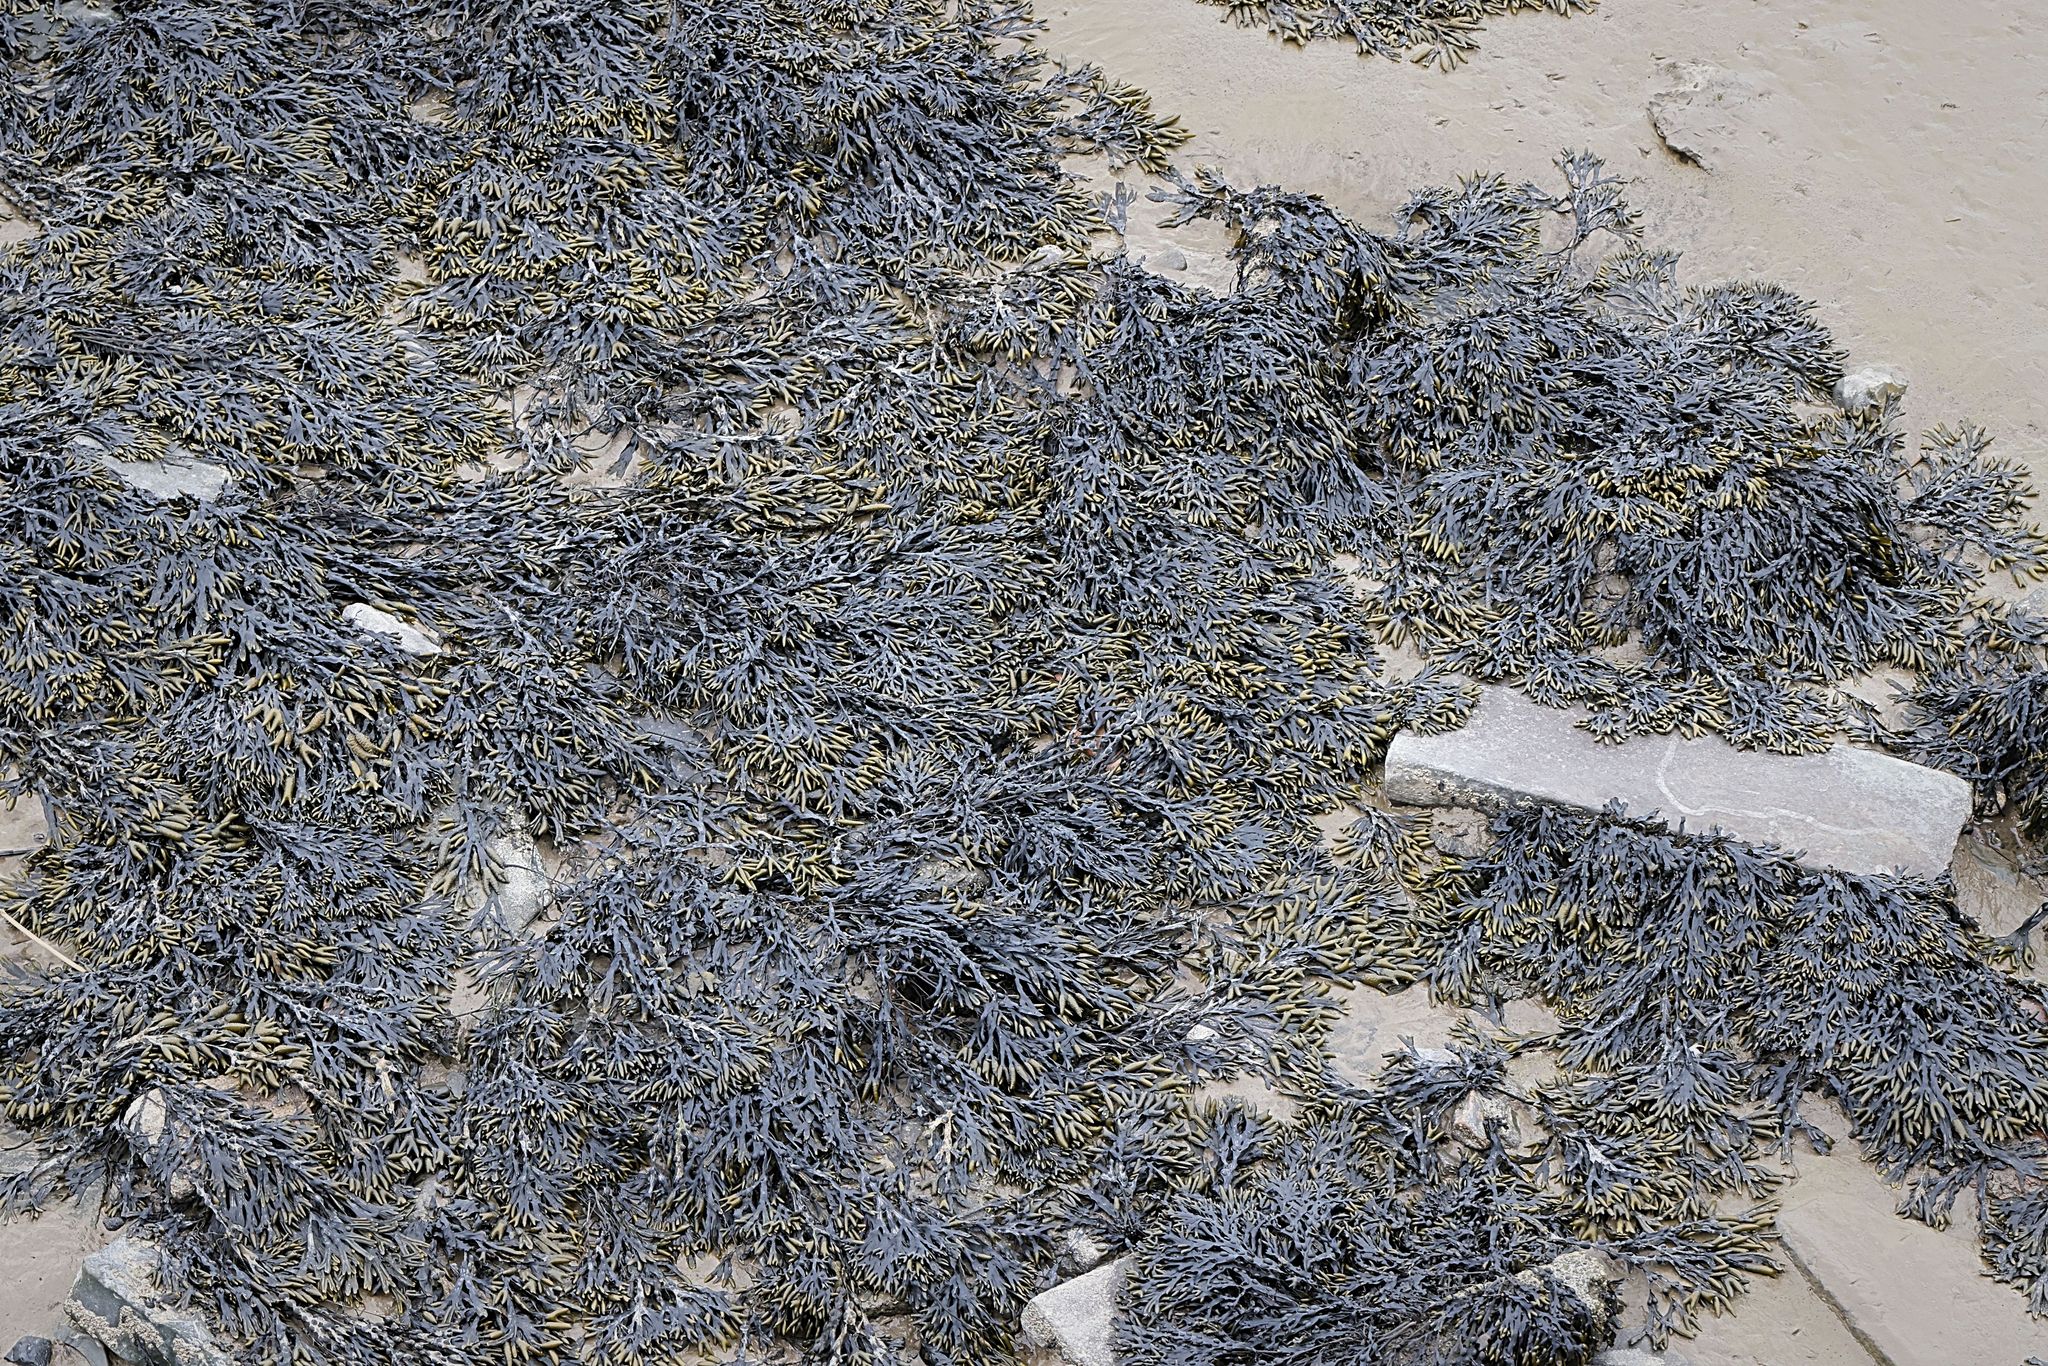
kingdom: Chromista
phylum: Ochrophyta
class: Phaeophyceae
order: Fucales
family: Fucaceae
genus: Fucus
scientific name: Fucus vesiculosus
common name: Bladder wrack
